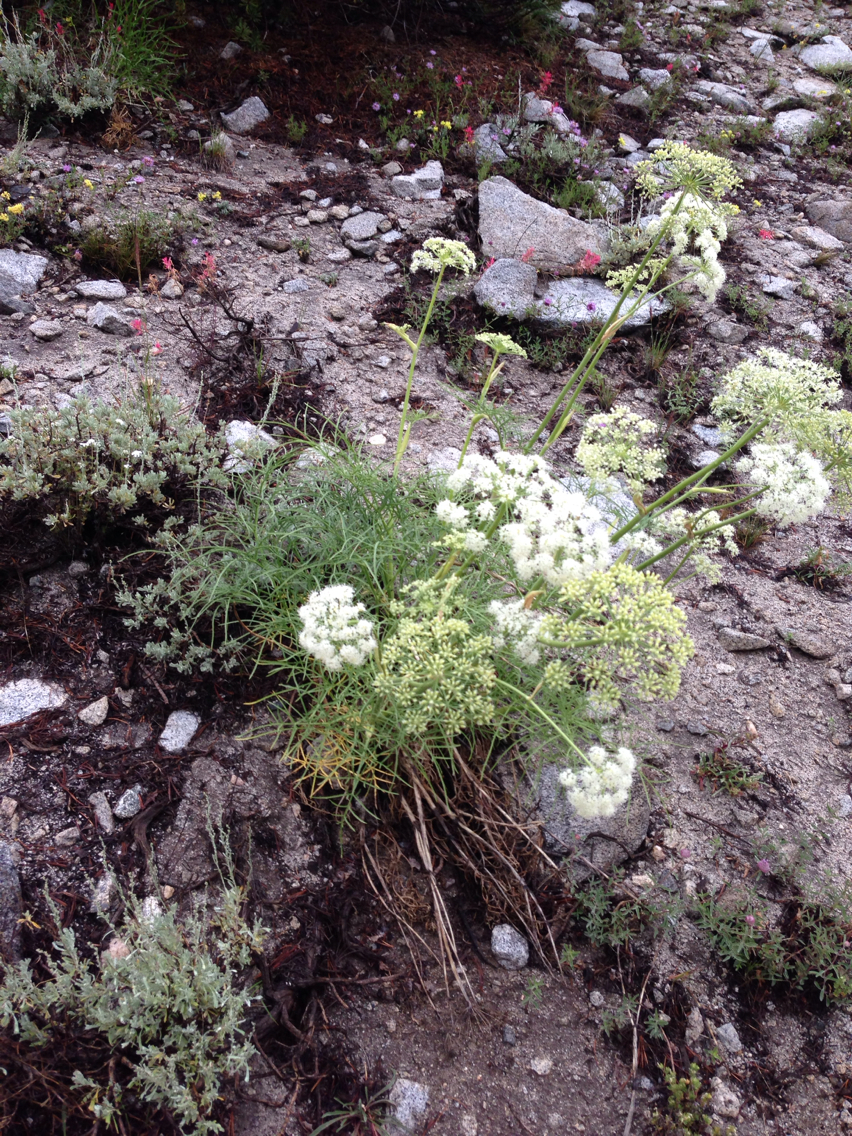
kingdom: Plantae
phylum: Tracheophyta
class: Magnoliopsida
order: Apiales
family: Apiaceae
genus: Angelica
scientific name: Angelica lineariloba
